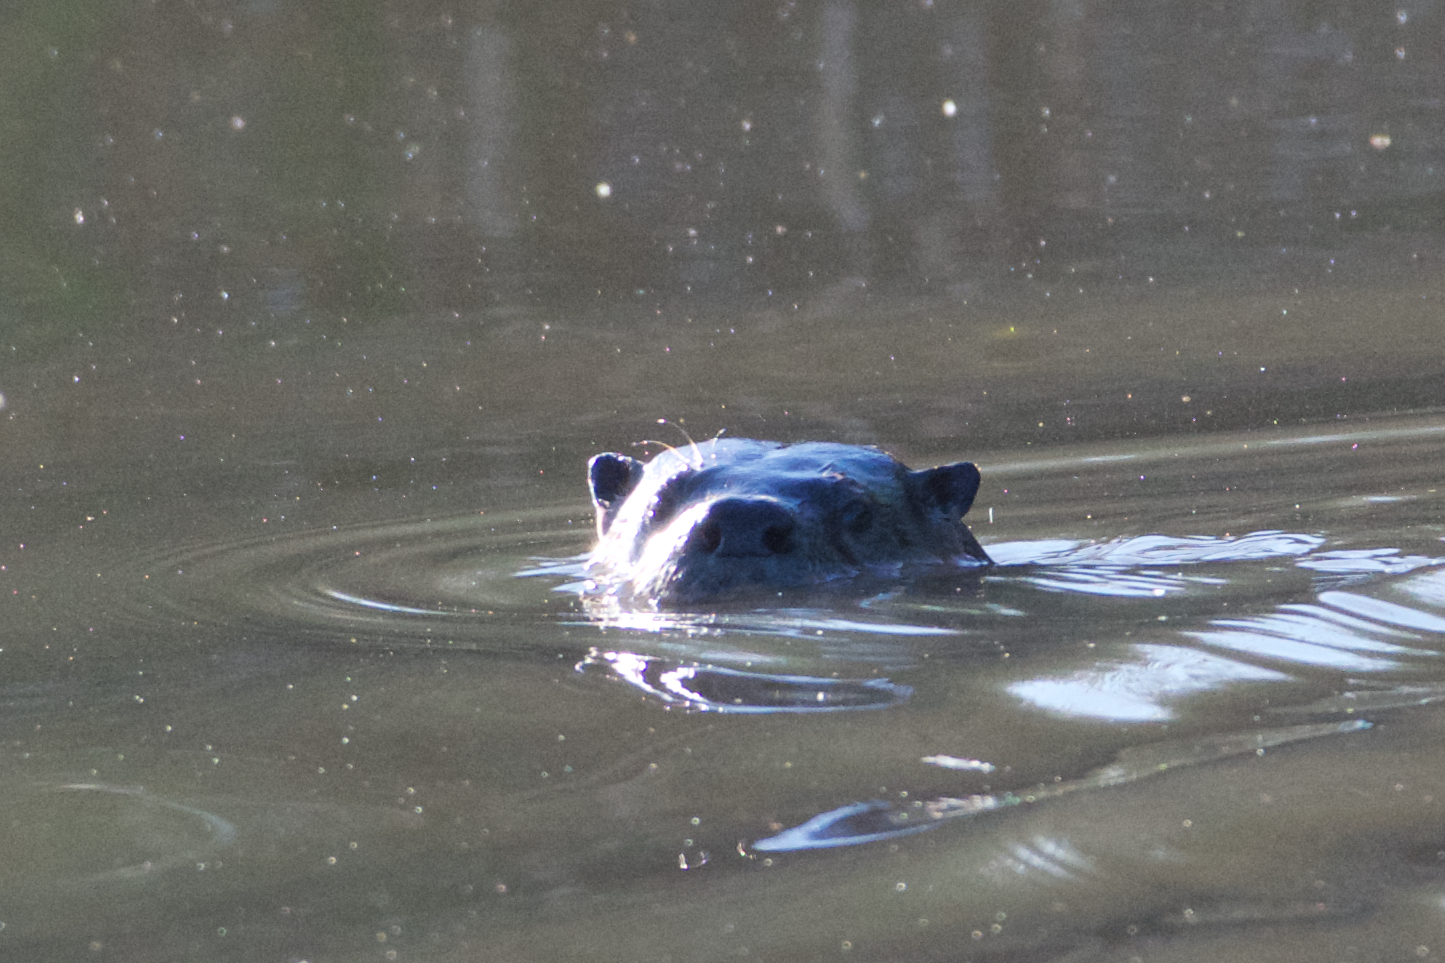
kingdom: Animalia
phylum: Chordata
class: Mammalia
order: Carnivora
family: Mustelidae
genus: Lontra
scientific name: Lontra canadensis
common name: North american river otter
